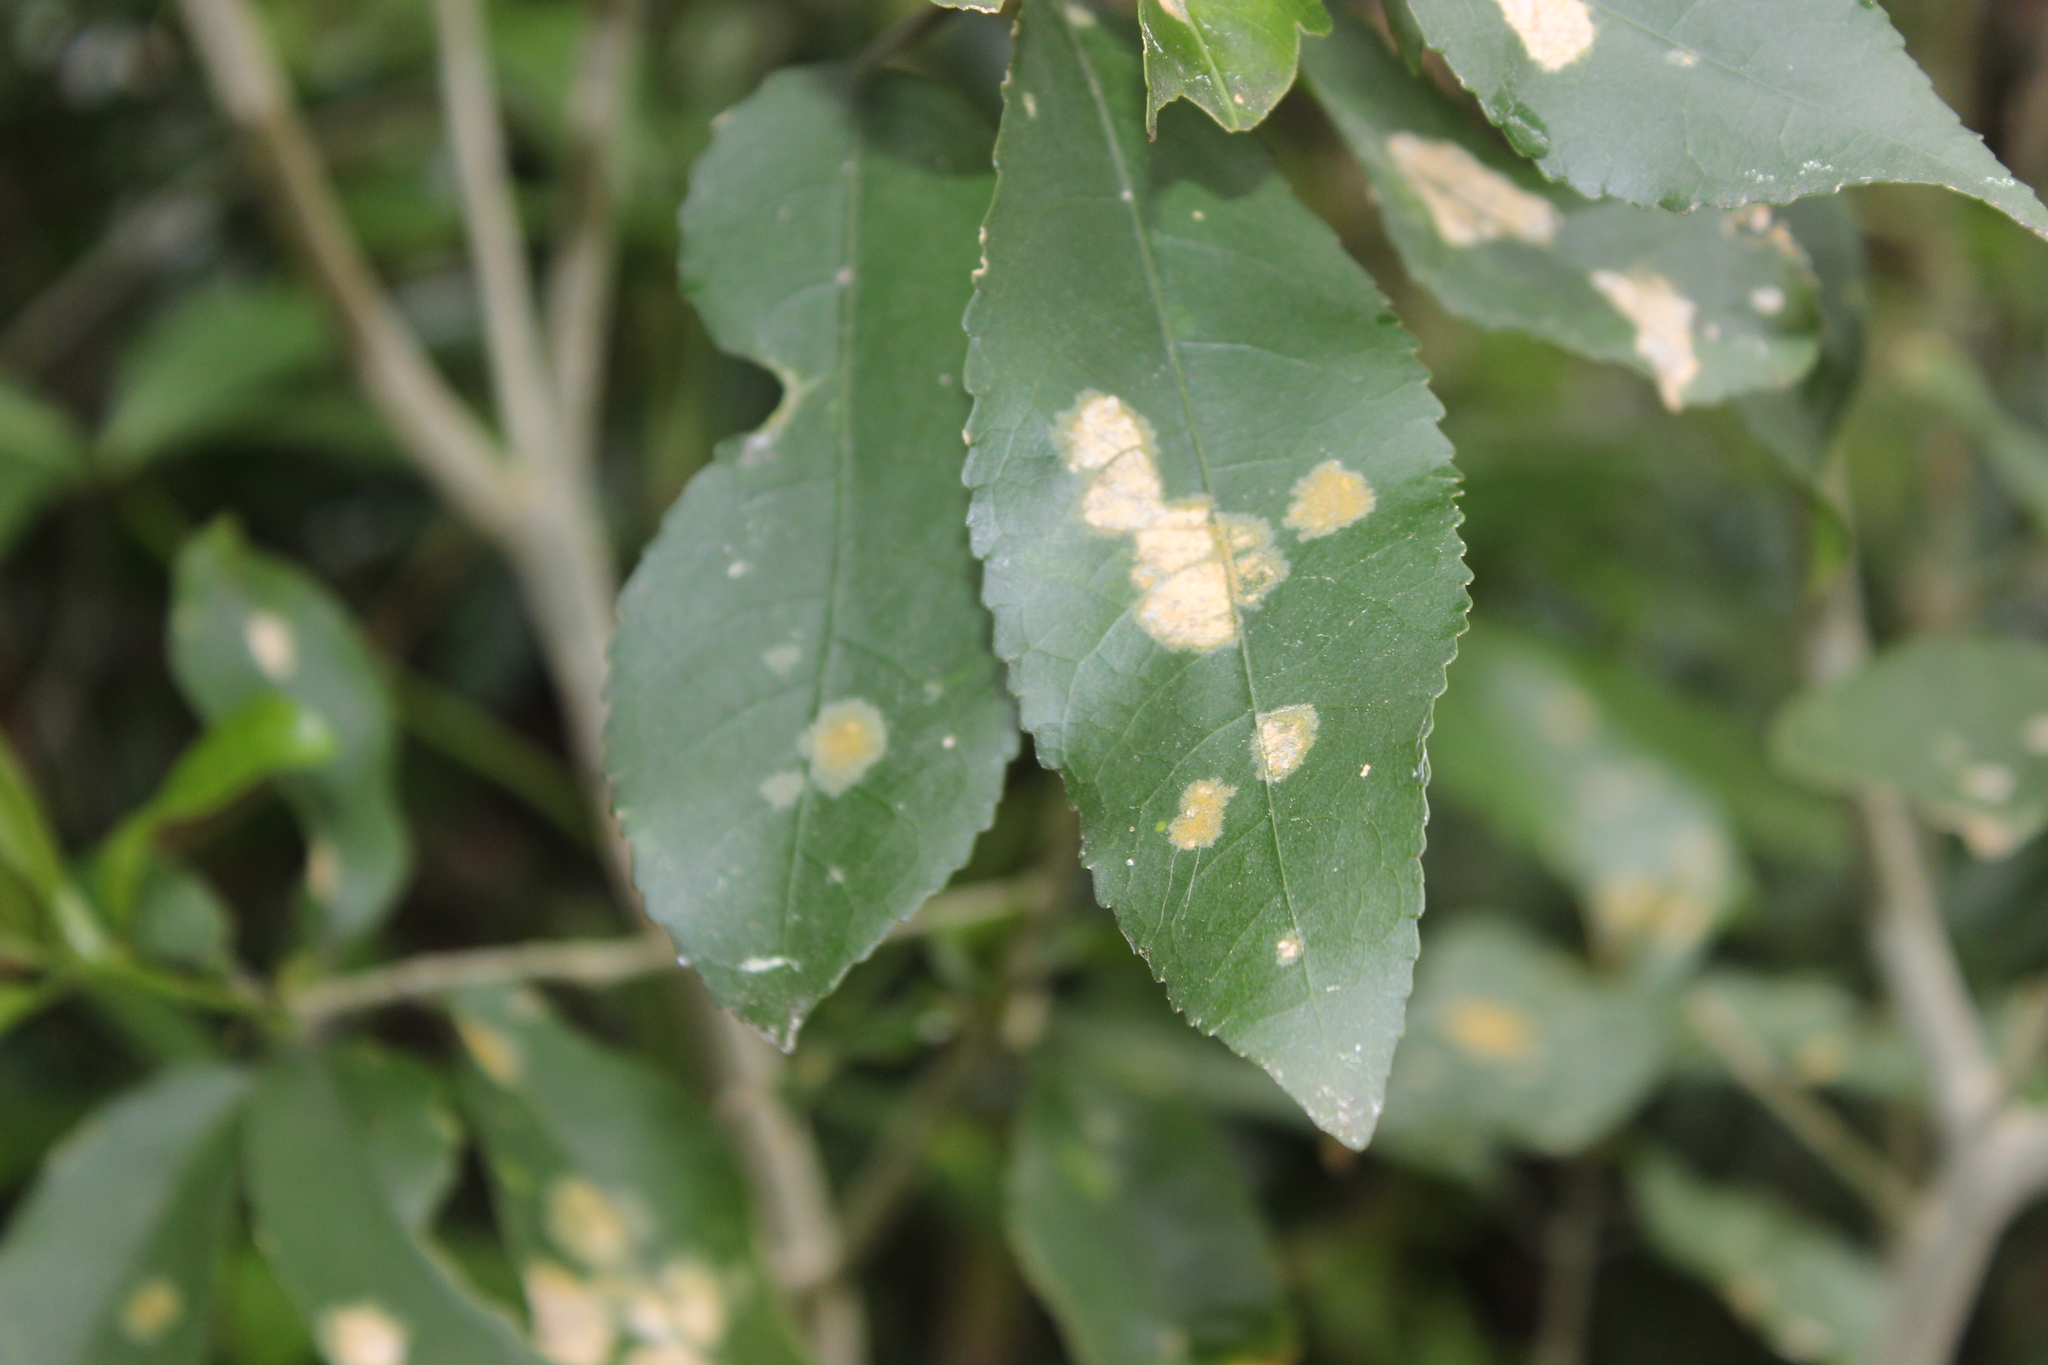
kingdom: Plantae
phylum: Chlorophyta
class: Ulvophyceae
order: Trentepohliales
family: Trentepohliaceae
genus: Cephaleuros
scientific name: Cephaleuros
